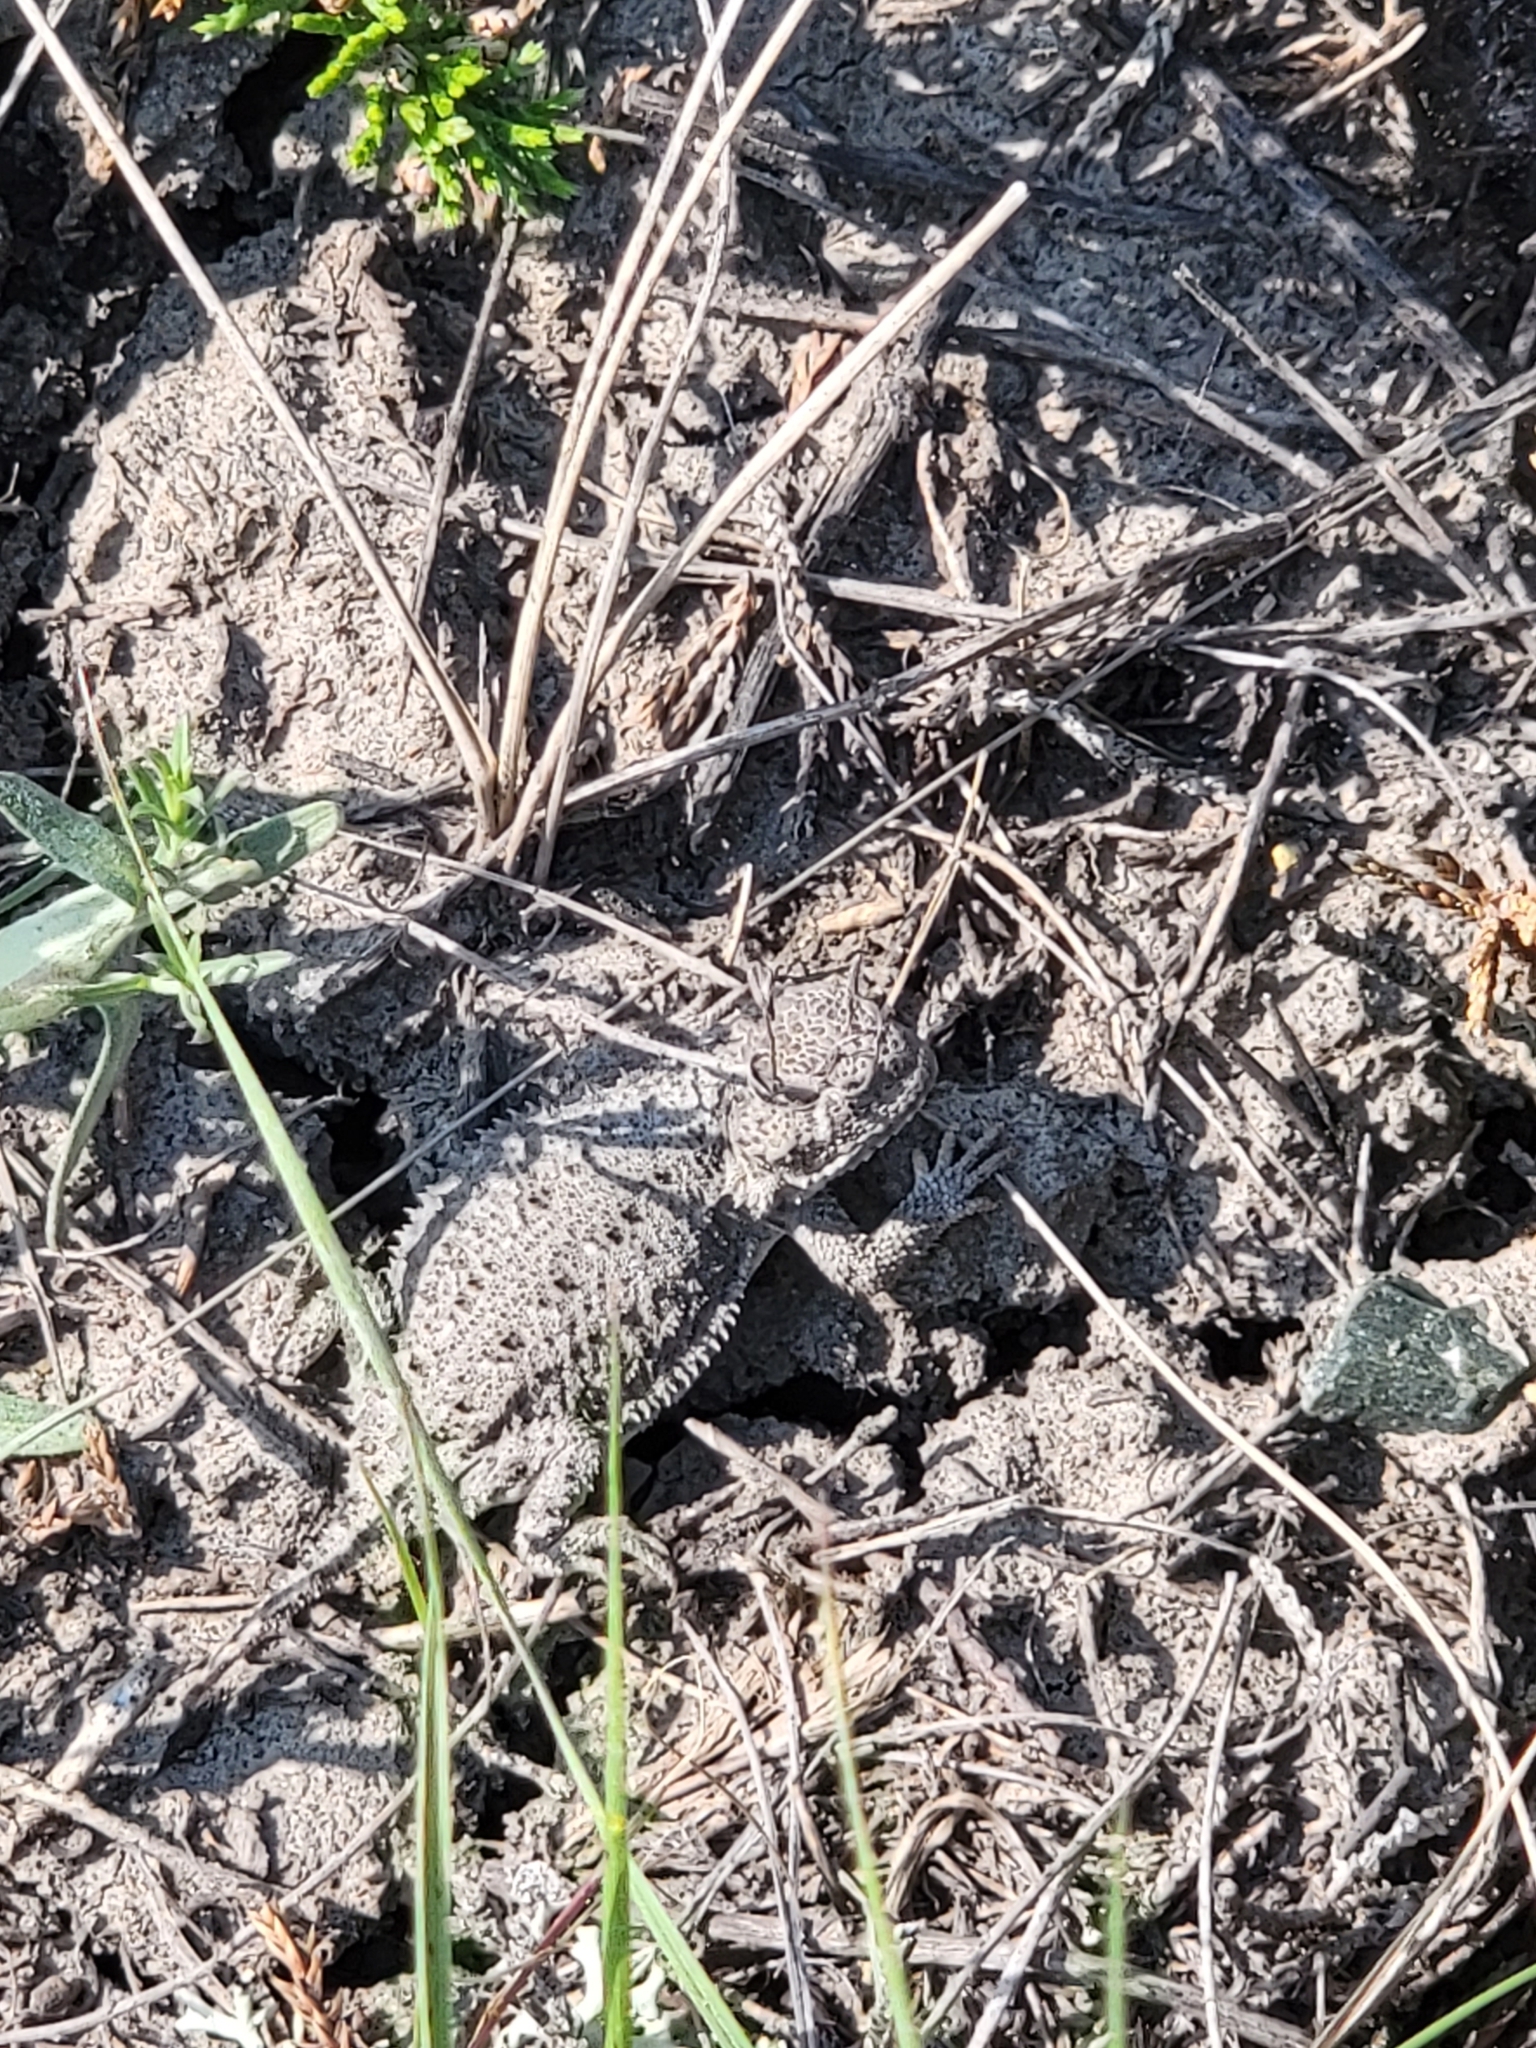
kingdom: Animalia
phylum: Chordata
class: Squamata
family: Phrynosomatidae
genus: Phrynosoma
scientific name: Phrynosoma hernandesi
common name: Greater short-horned lizard
